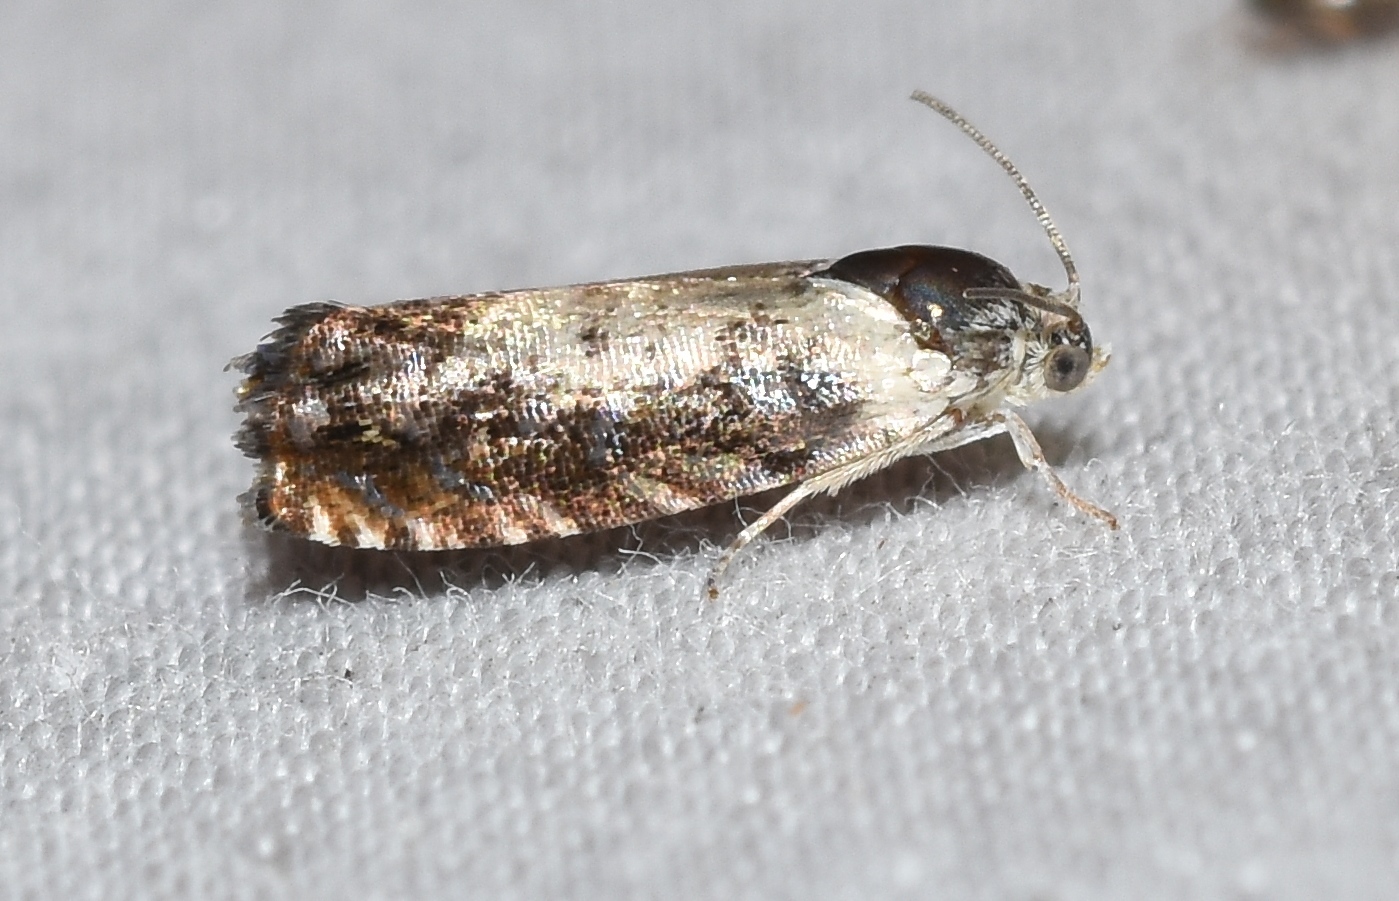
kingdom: Animalia
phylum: Arthropoda
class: Insecta
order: Lepidoptera
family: Tortricidae
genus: Pammene
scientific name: Pammene felicitana
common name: Happy pammene
